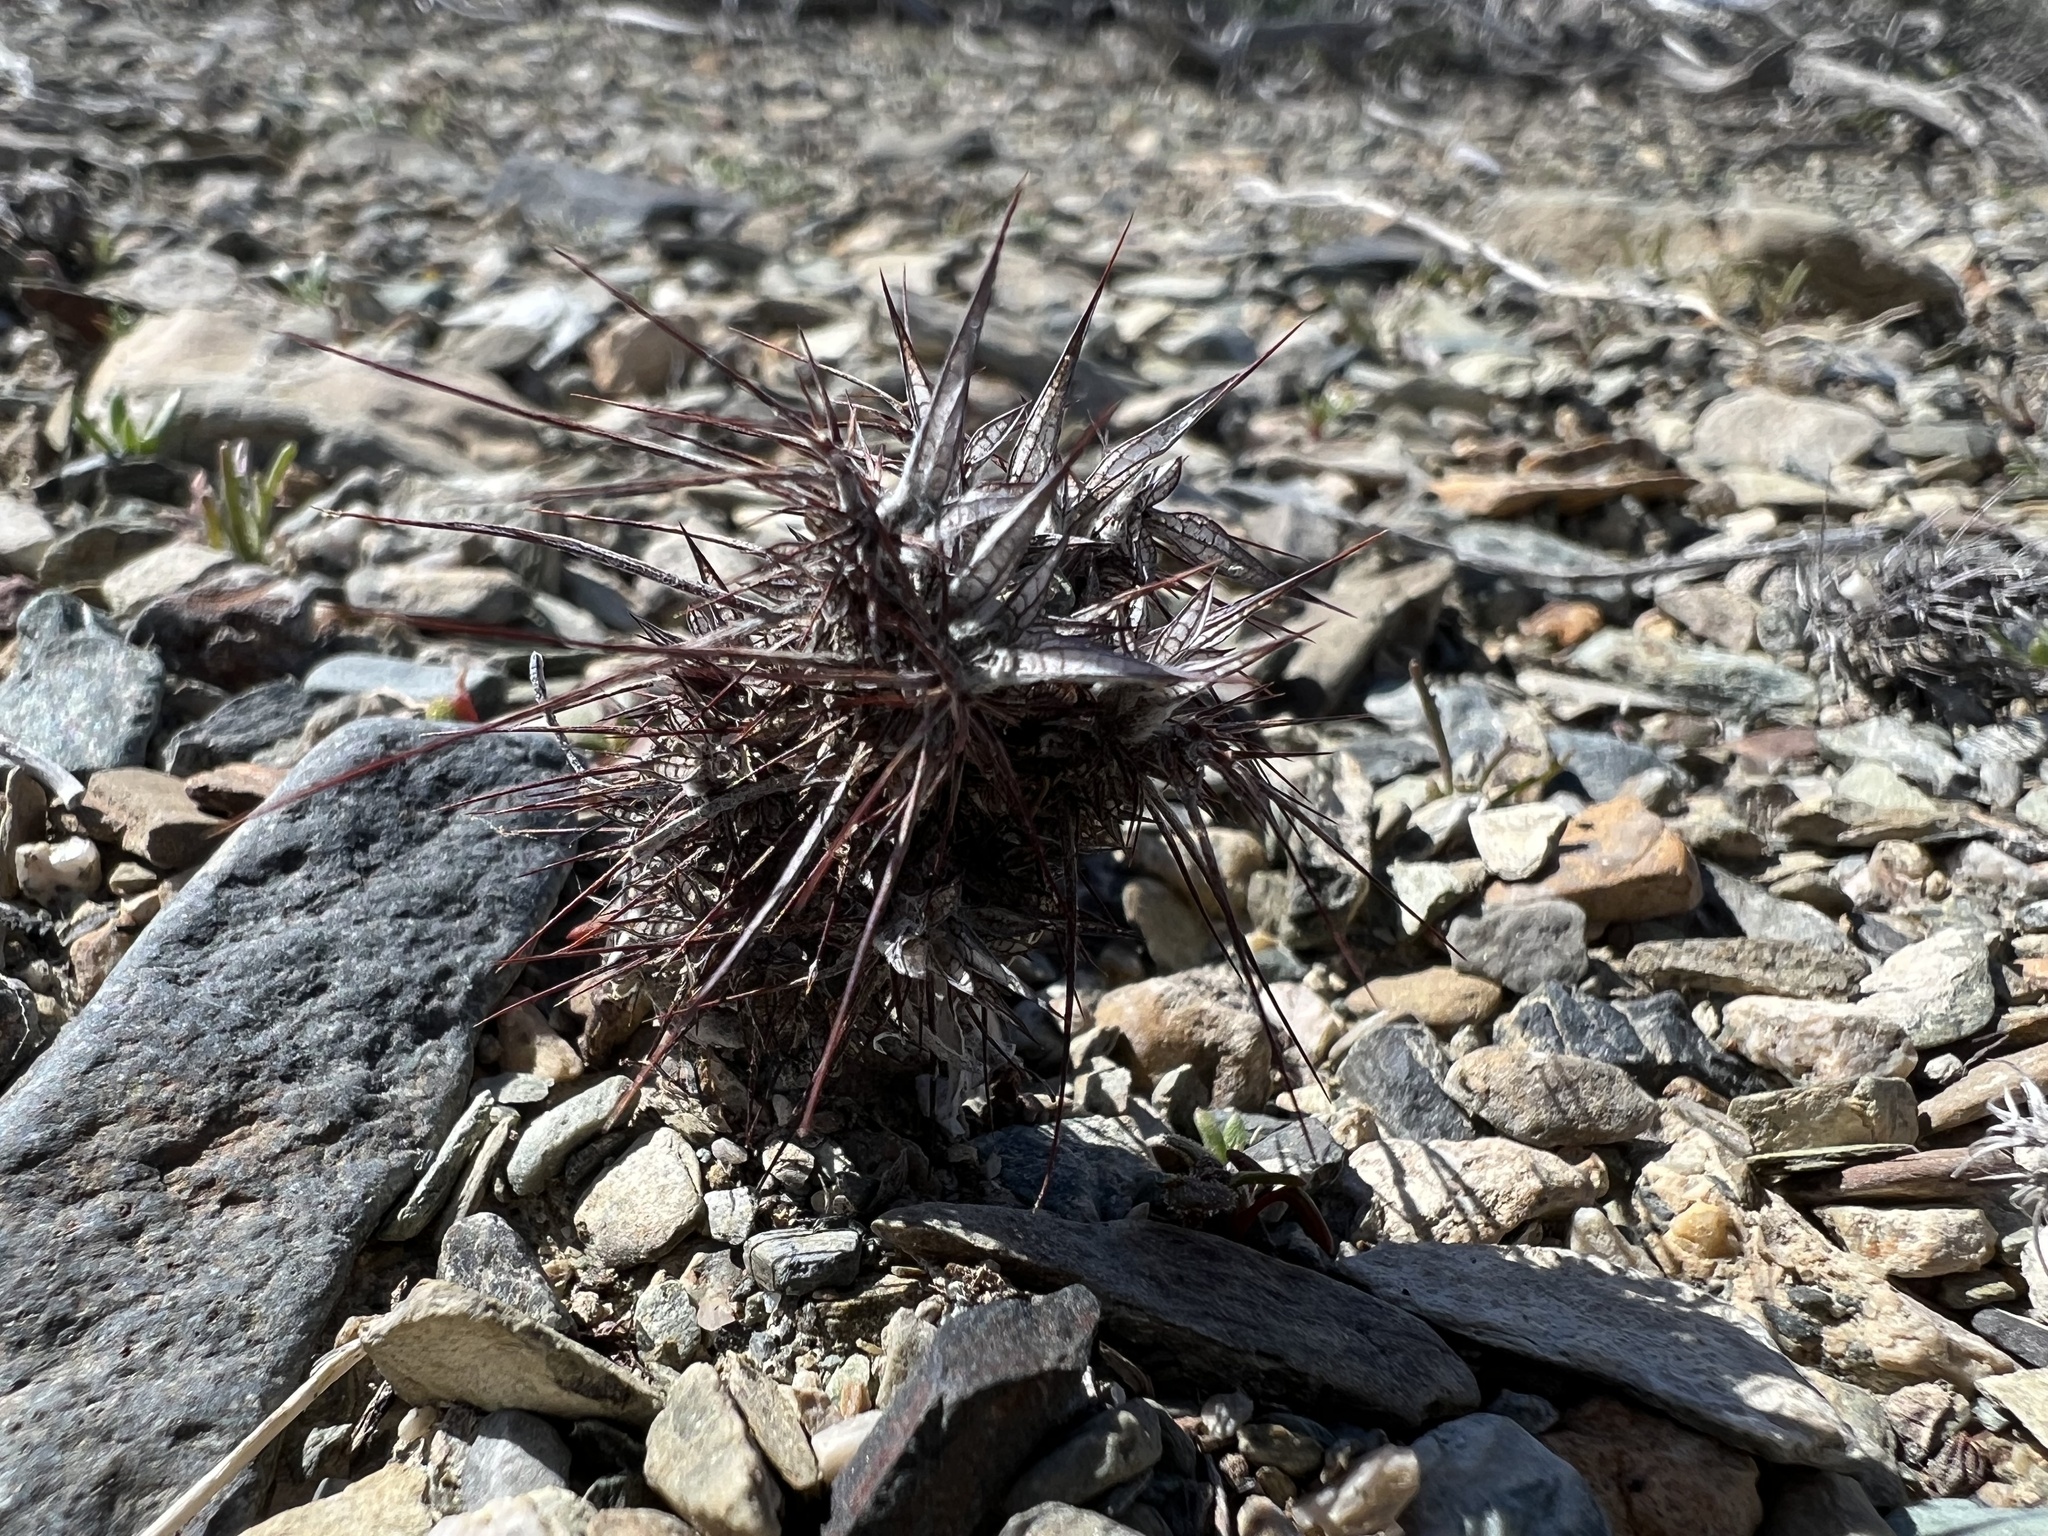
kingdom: Plantae
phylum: Tracheophyta
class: Magnoliopsida
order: Caryophyllales
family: Polygonaceae
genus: Chorizanthe
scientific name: Chorizanthe rigida
